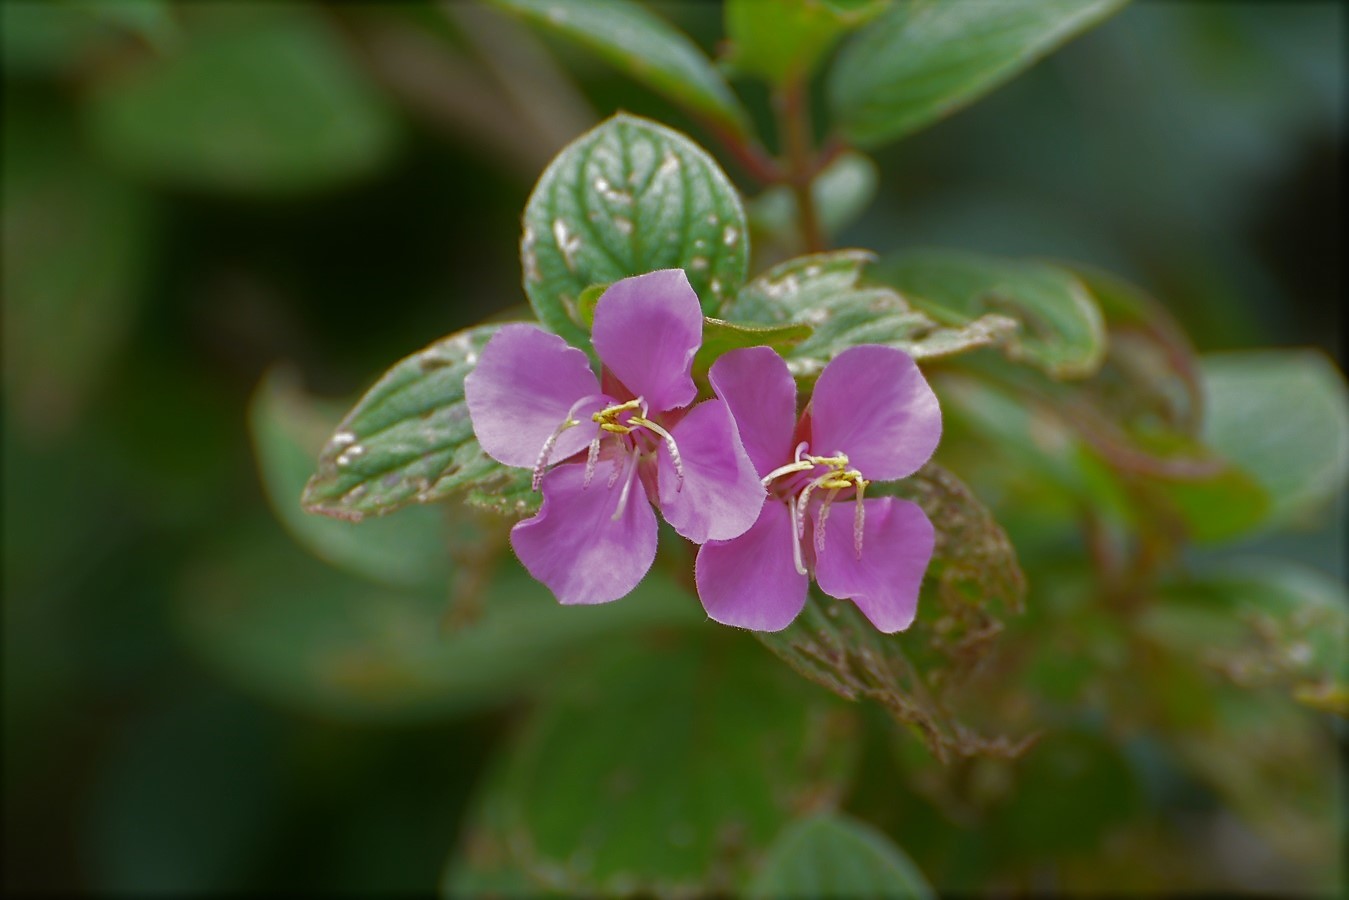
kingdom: Plantae
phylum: Tracheophyta
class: Magnoliopsida
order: Myrtales
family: Melastomataceae
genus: Heterocentron
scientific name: Heterocentron muricatum
